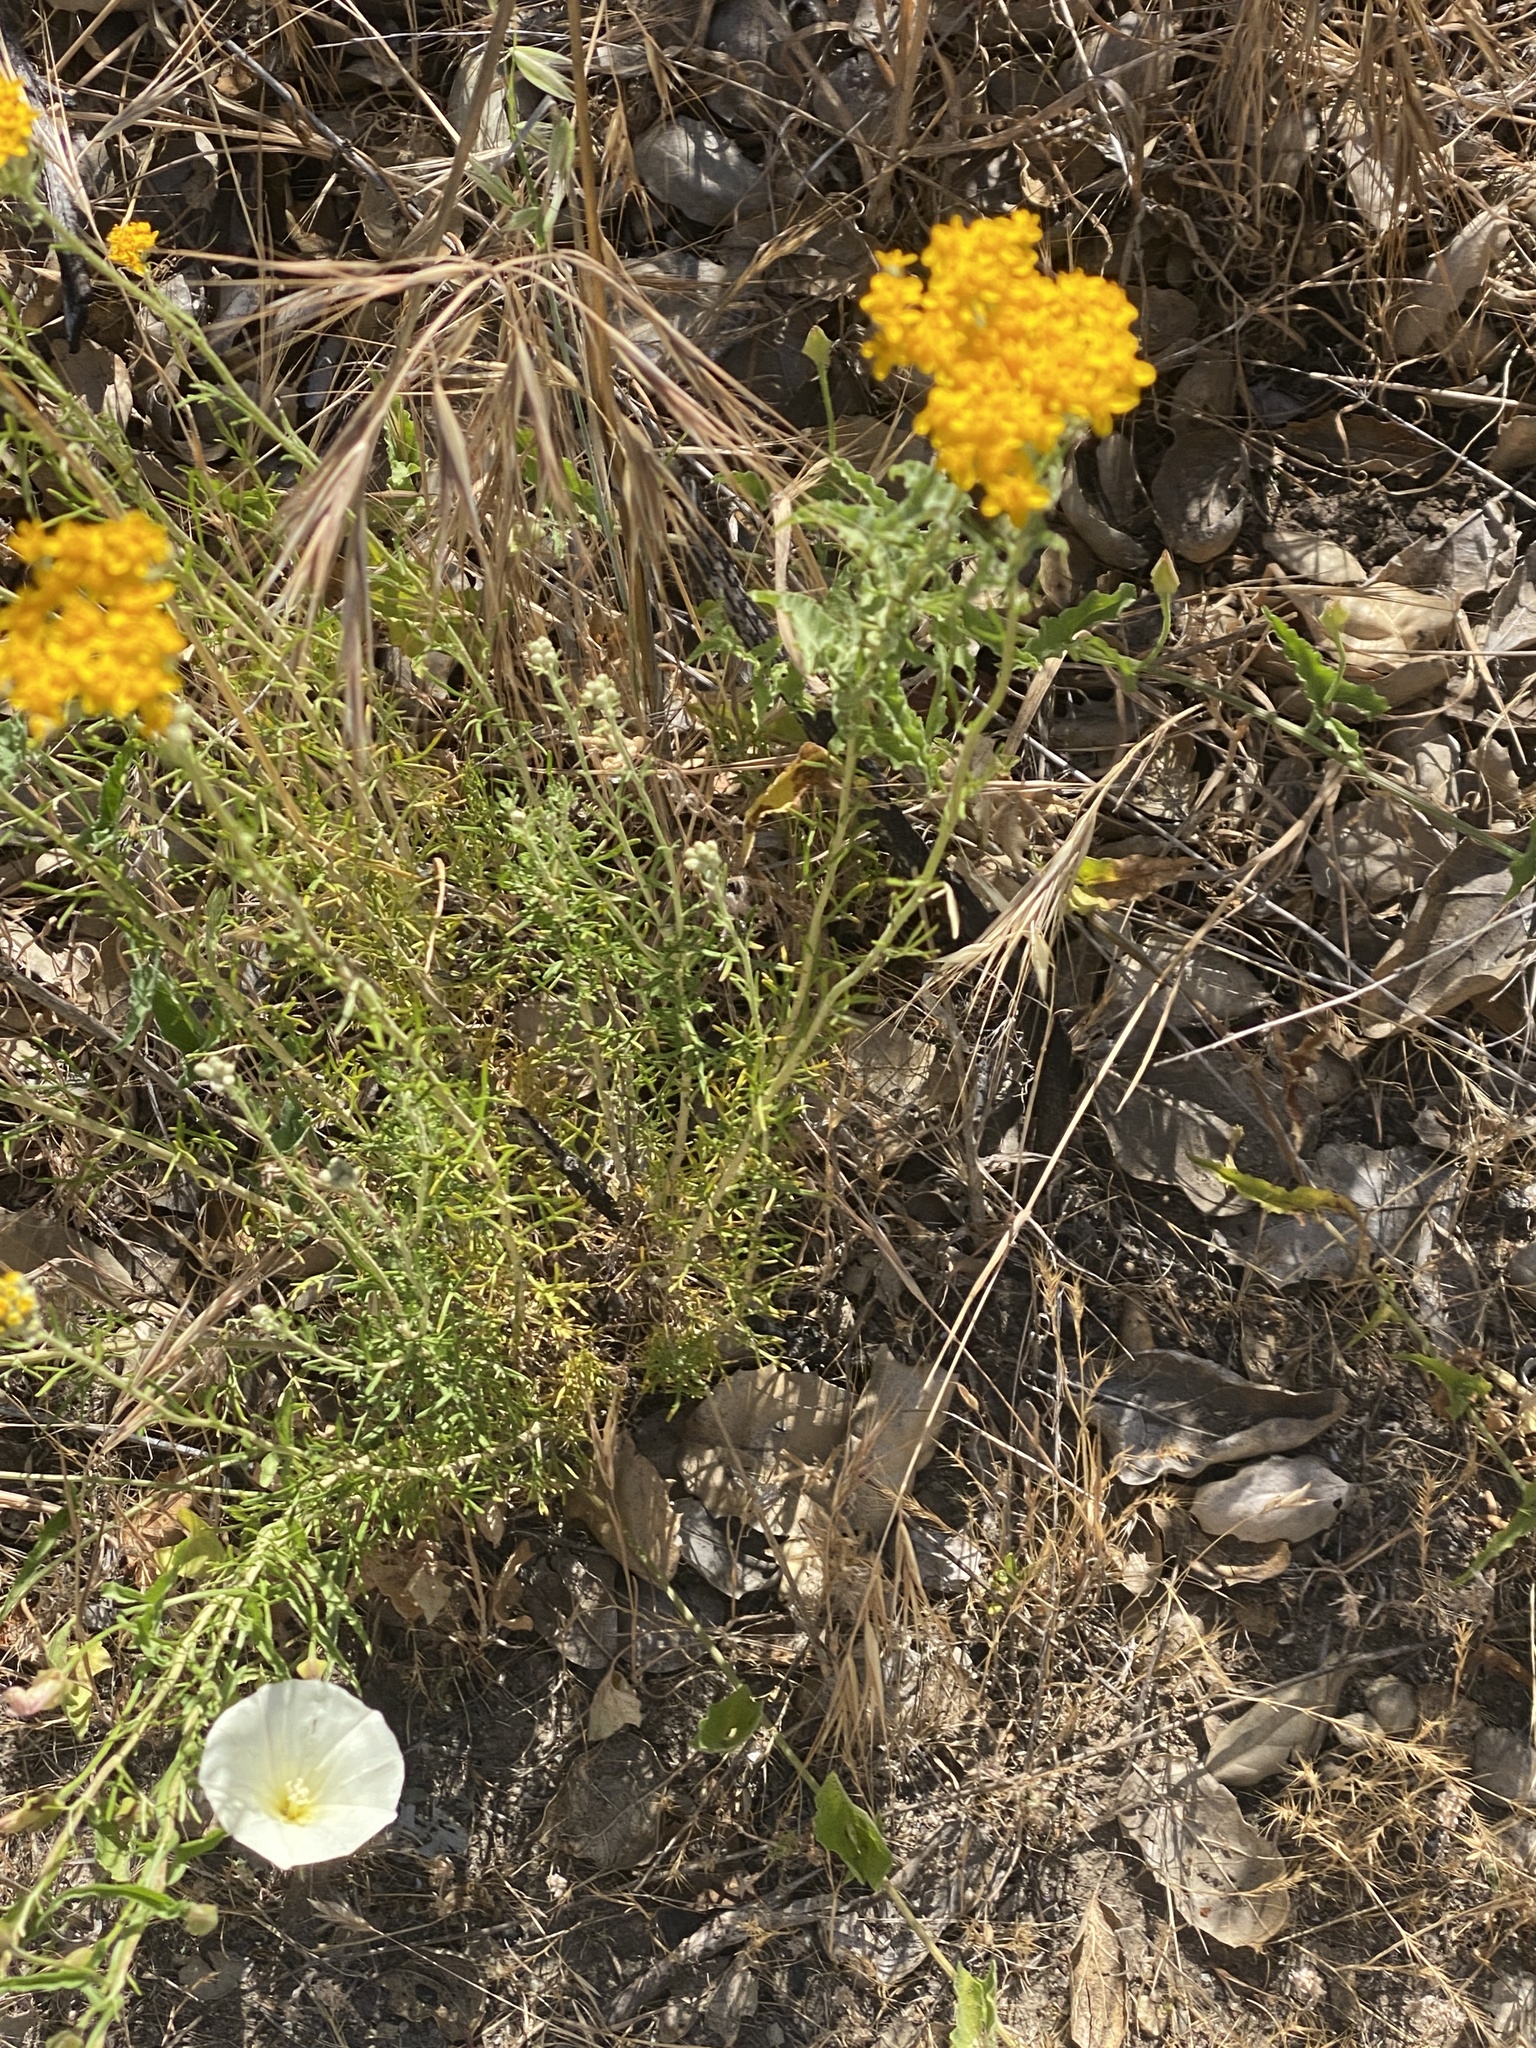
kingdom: Plantae
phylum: Tracheophyta
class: Magnoliopsida
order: Asterales
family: Asteraceae
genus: Eriophyllum
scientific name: Eriophyllum confertiflorum
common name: Golden-yarrow
